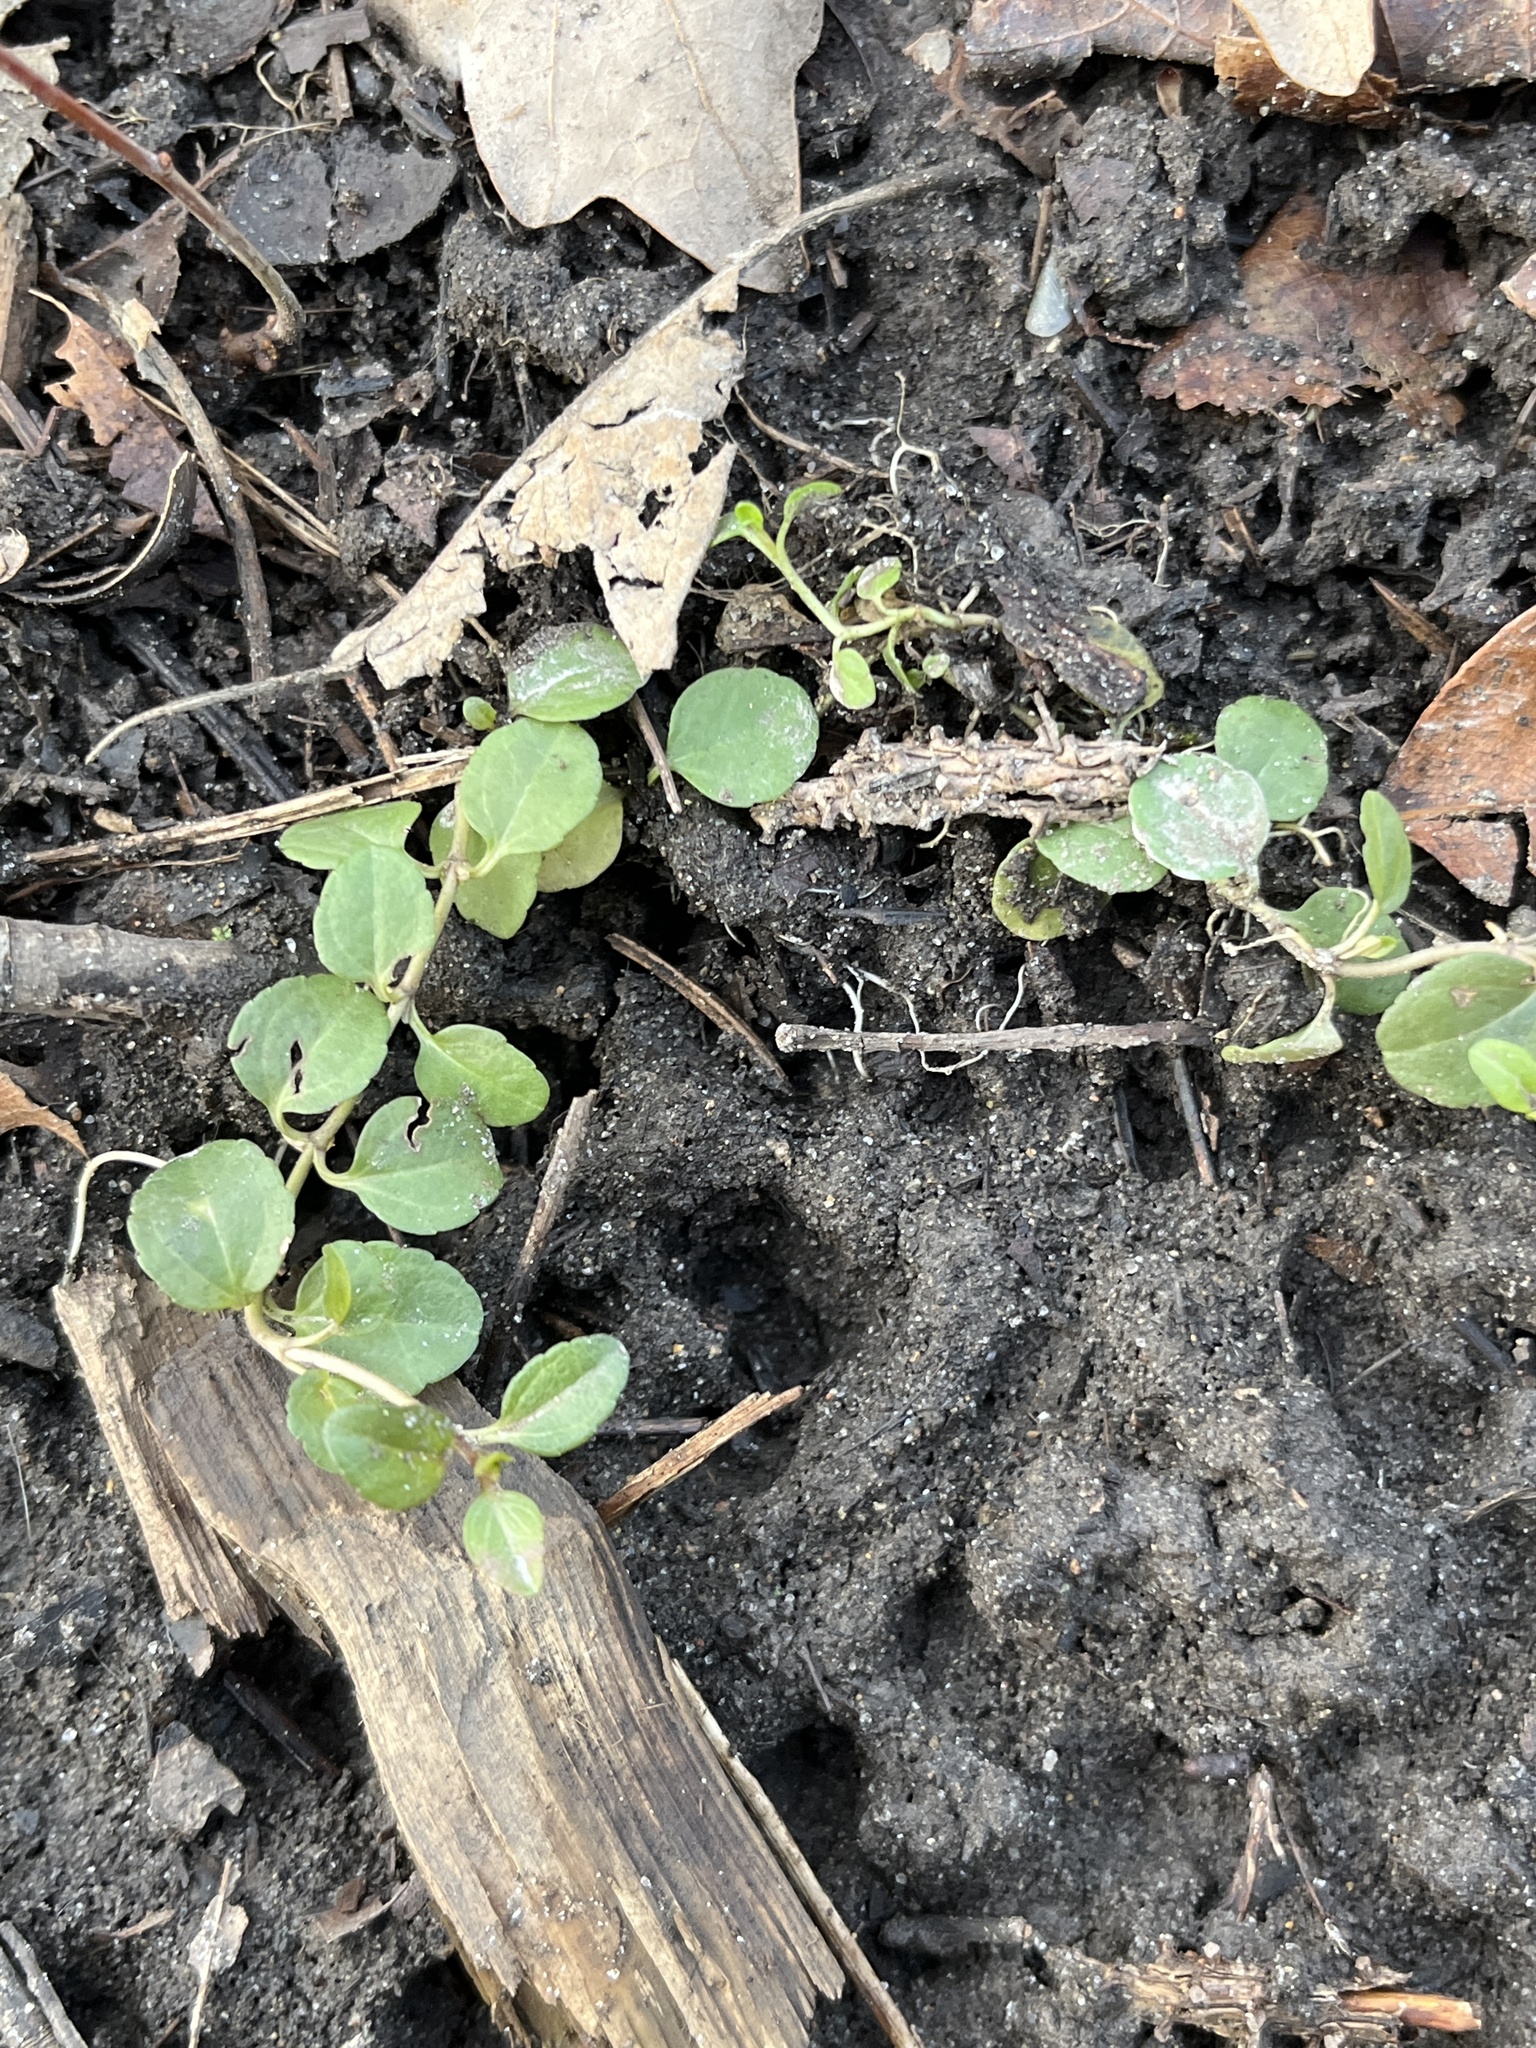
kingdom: Plantae
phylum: Tracheophyta
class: Magnoliopsida
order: Lamiales
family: Plantaginaceae
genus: Veronica
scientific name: Veronica serpyllifolia
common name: Thyme-leaved speedwell
